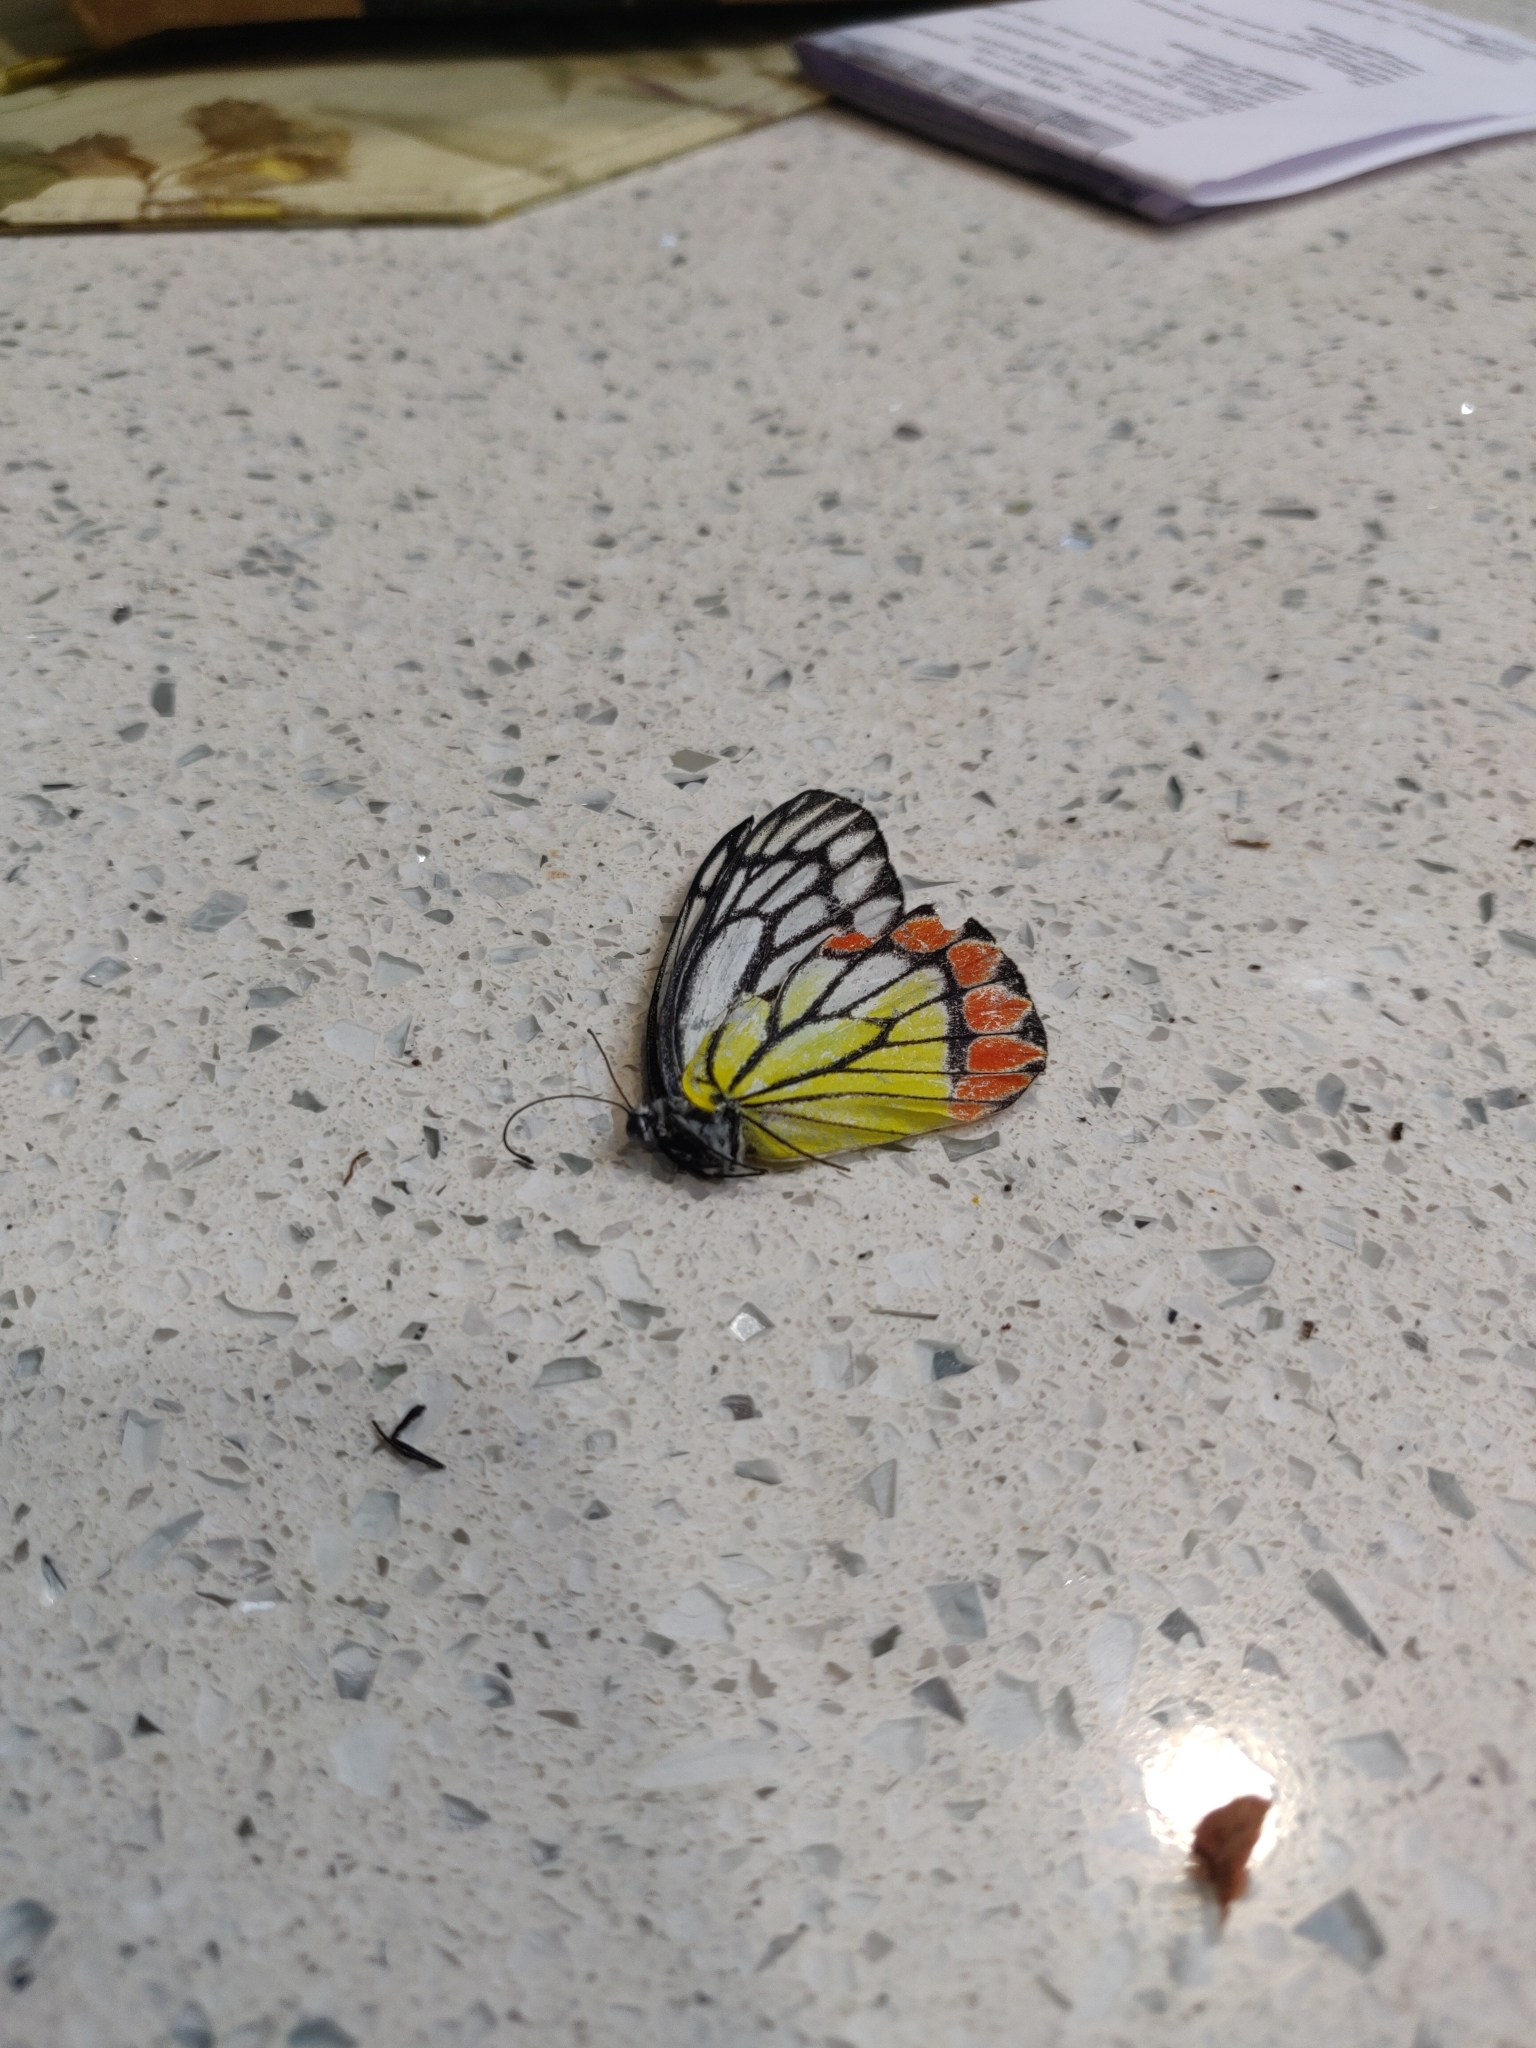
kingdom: Animalia
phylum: Arthropoda
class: Insecta
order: Lepidoptera
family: Pieridae
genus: Delias
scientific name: Delias eucharis
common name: Common jezebel
